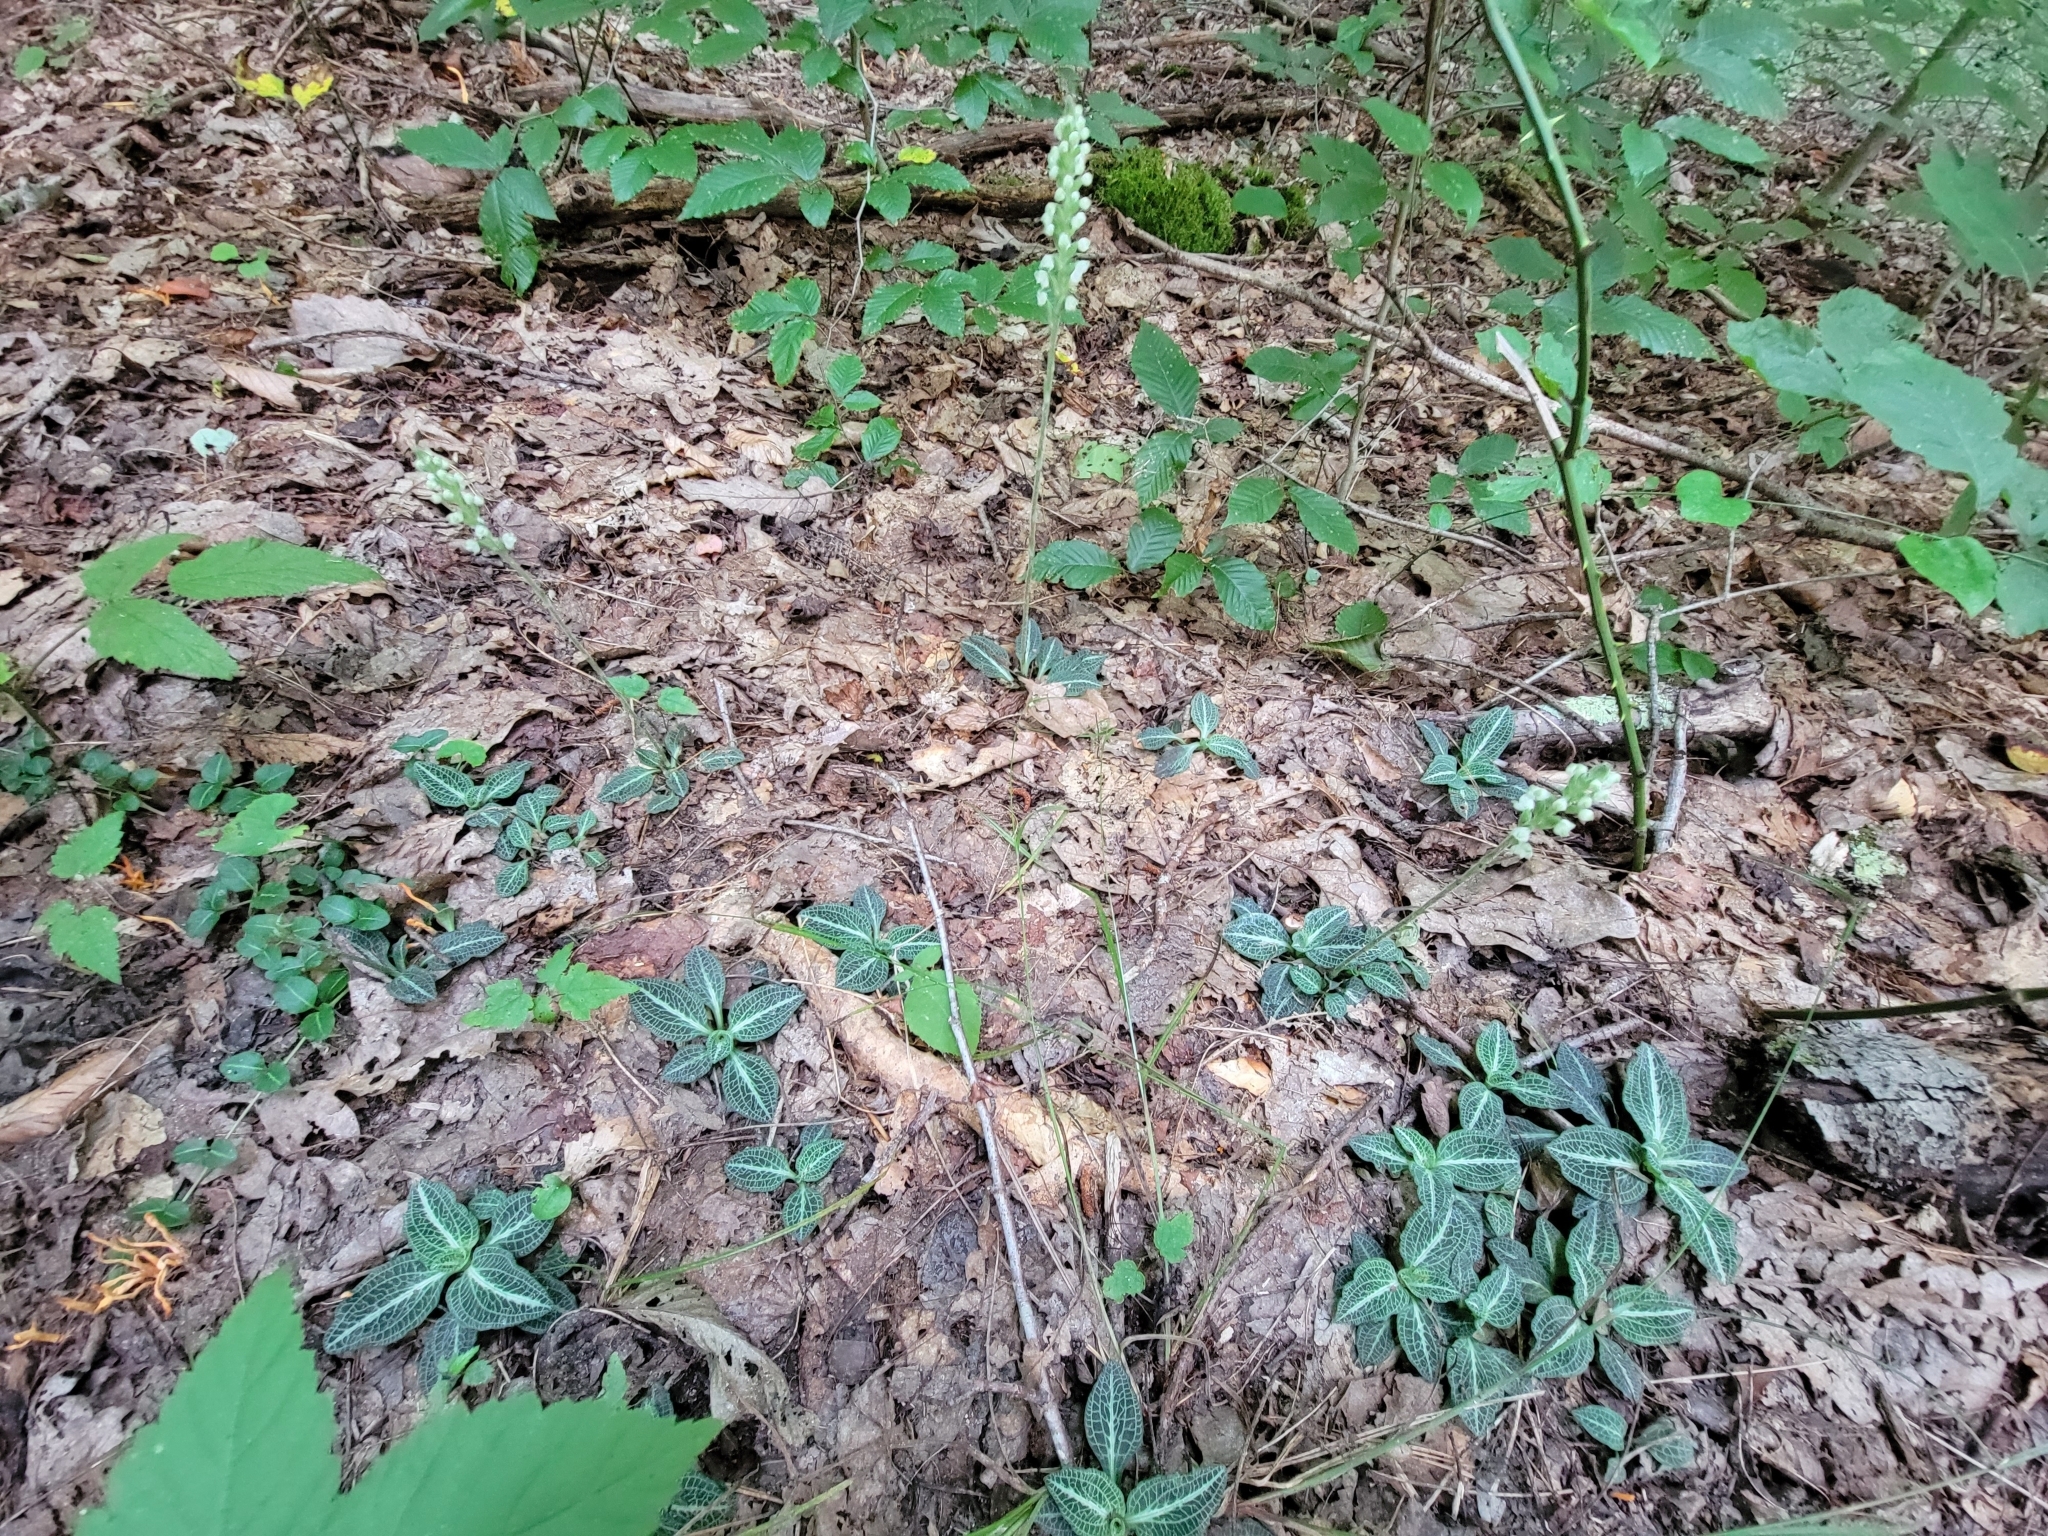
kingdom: Plantae
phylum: Tracheophyta
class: Liliopsida
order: Asparagales
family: Orchidaceae
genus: Goodyera
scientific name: Goodyera pubescens
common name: Downy rattlesnake-plantain
